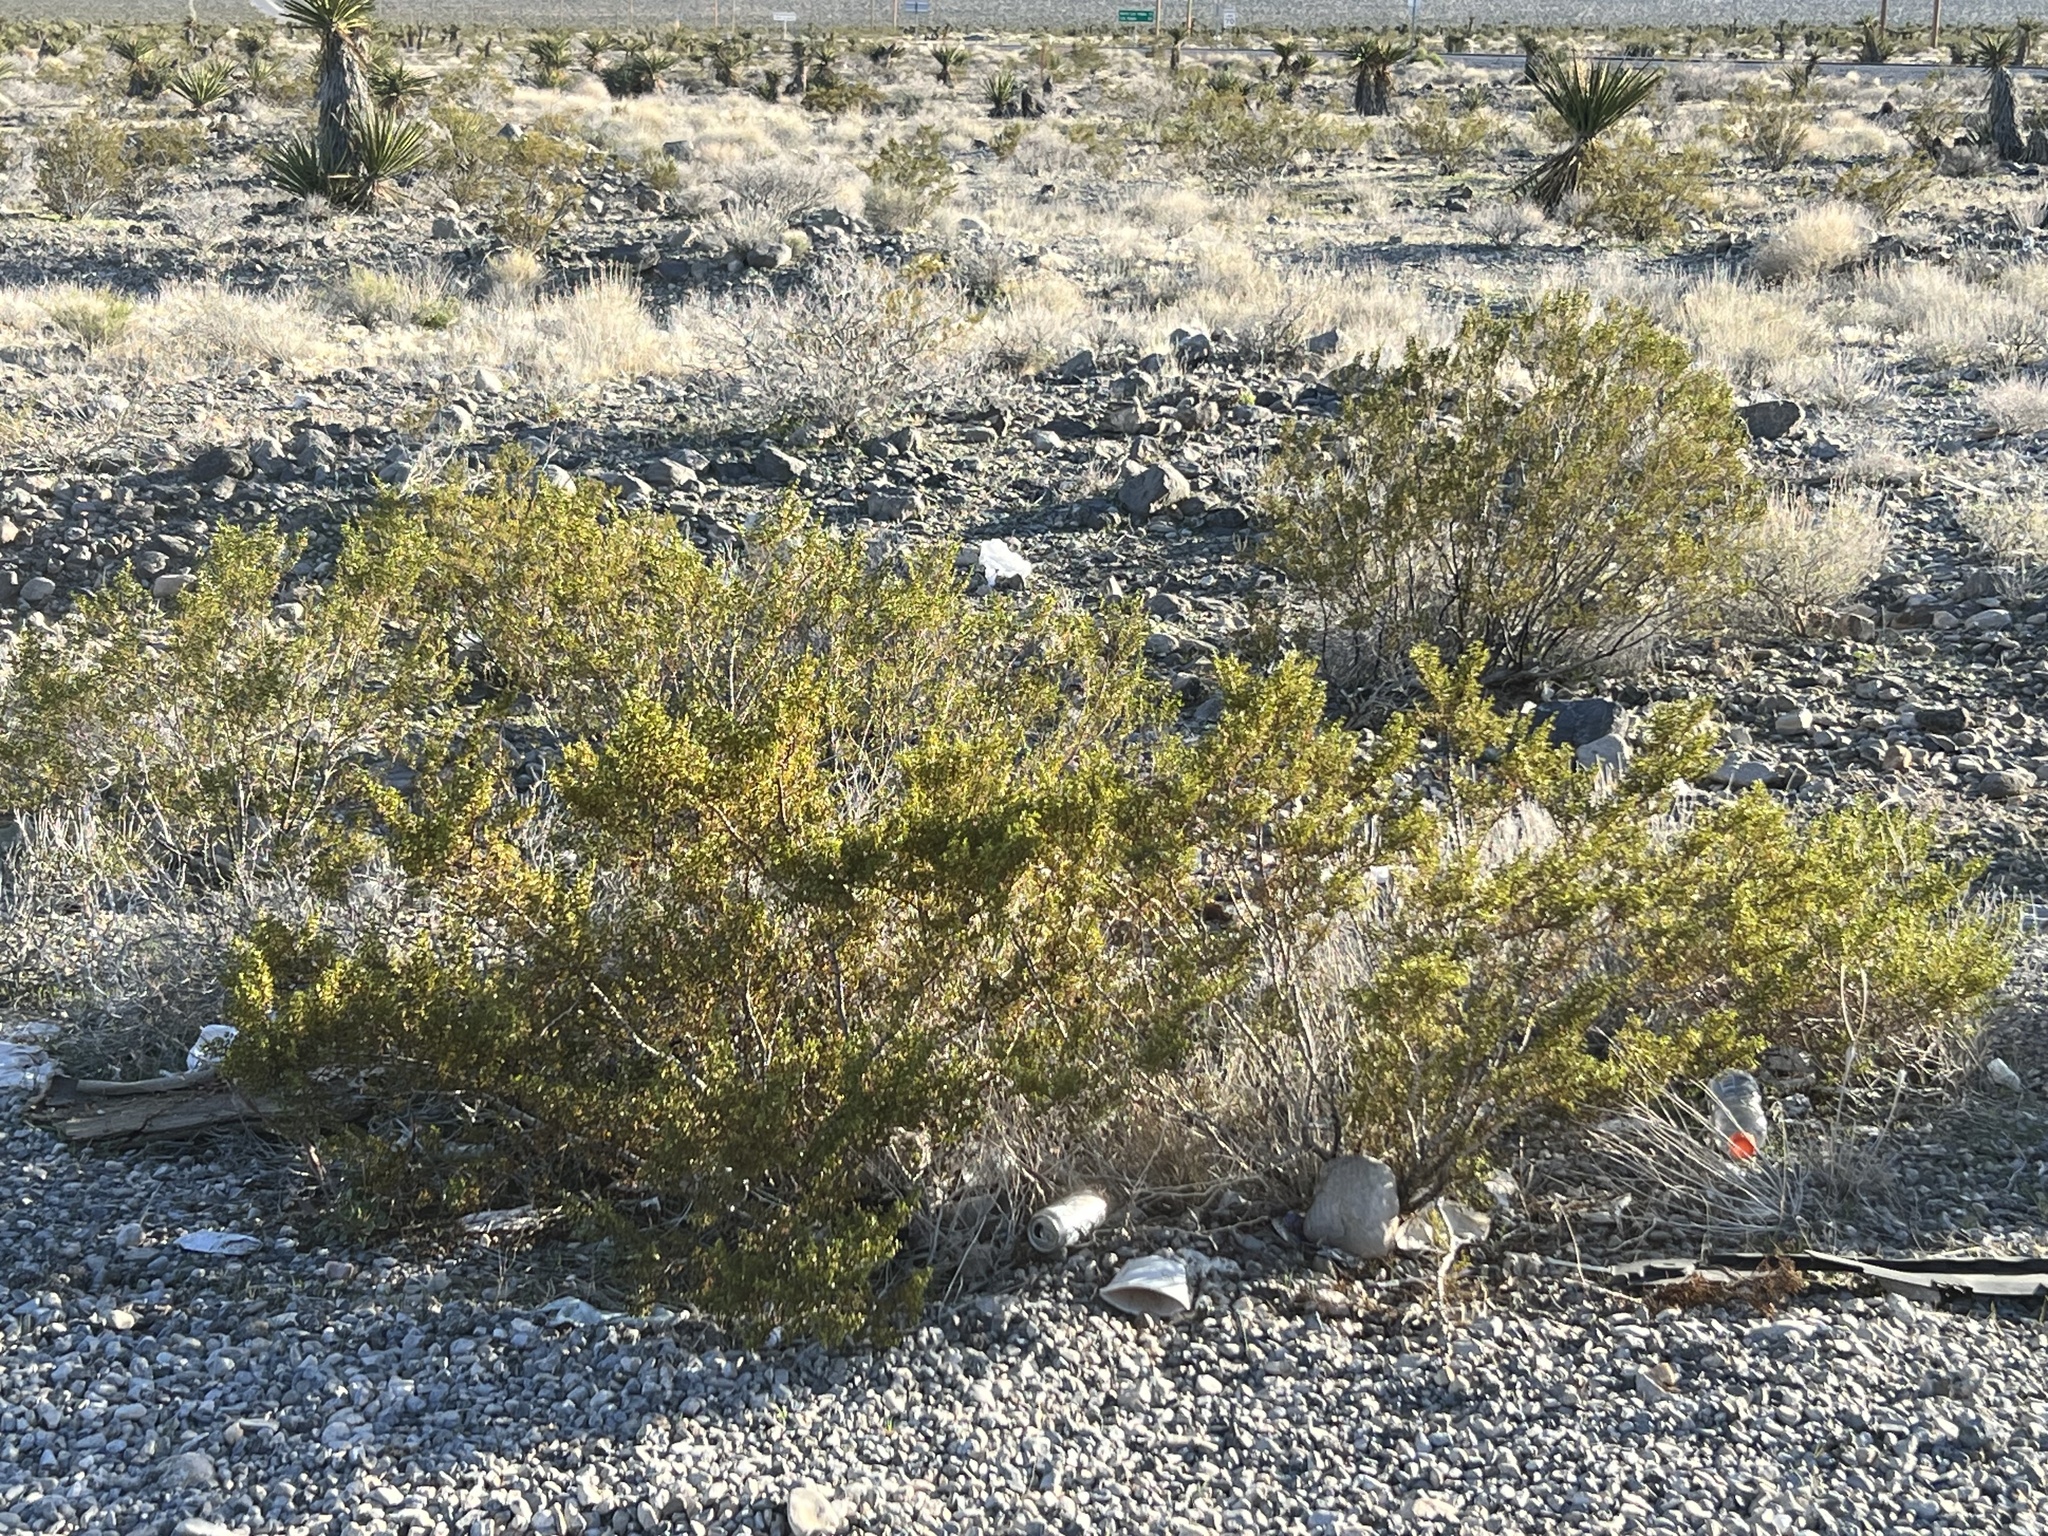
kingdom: Plantae
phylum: Tracheophyta
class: Magnoliopsida
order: Zygophyllales
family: Zygophyllaceae
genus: Larrea
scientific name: Larrea tridentata
